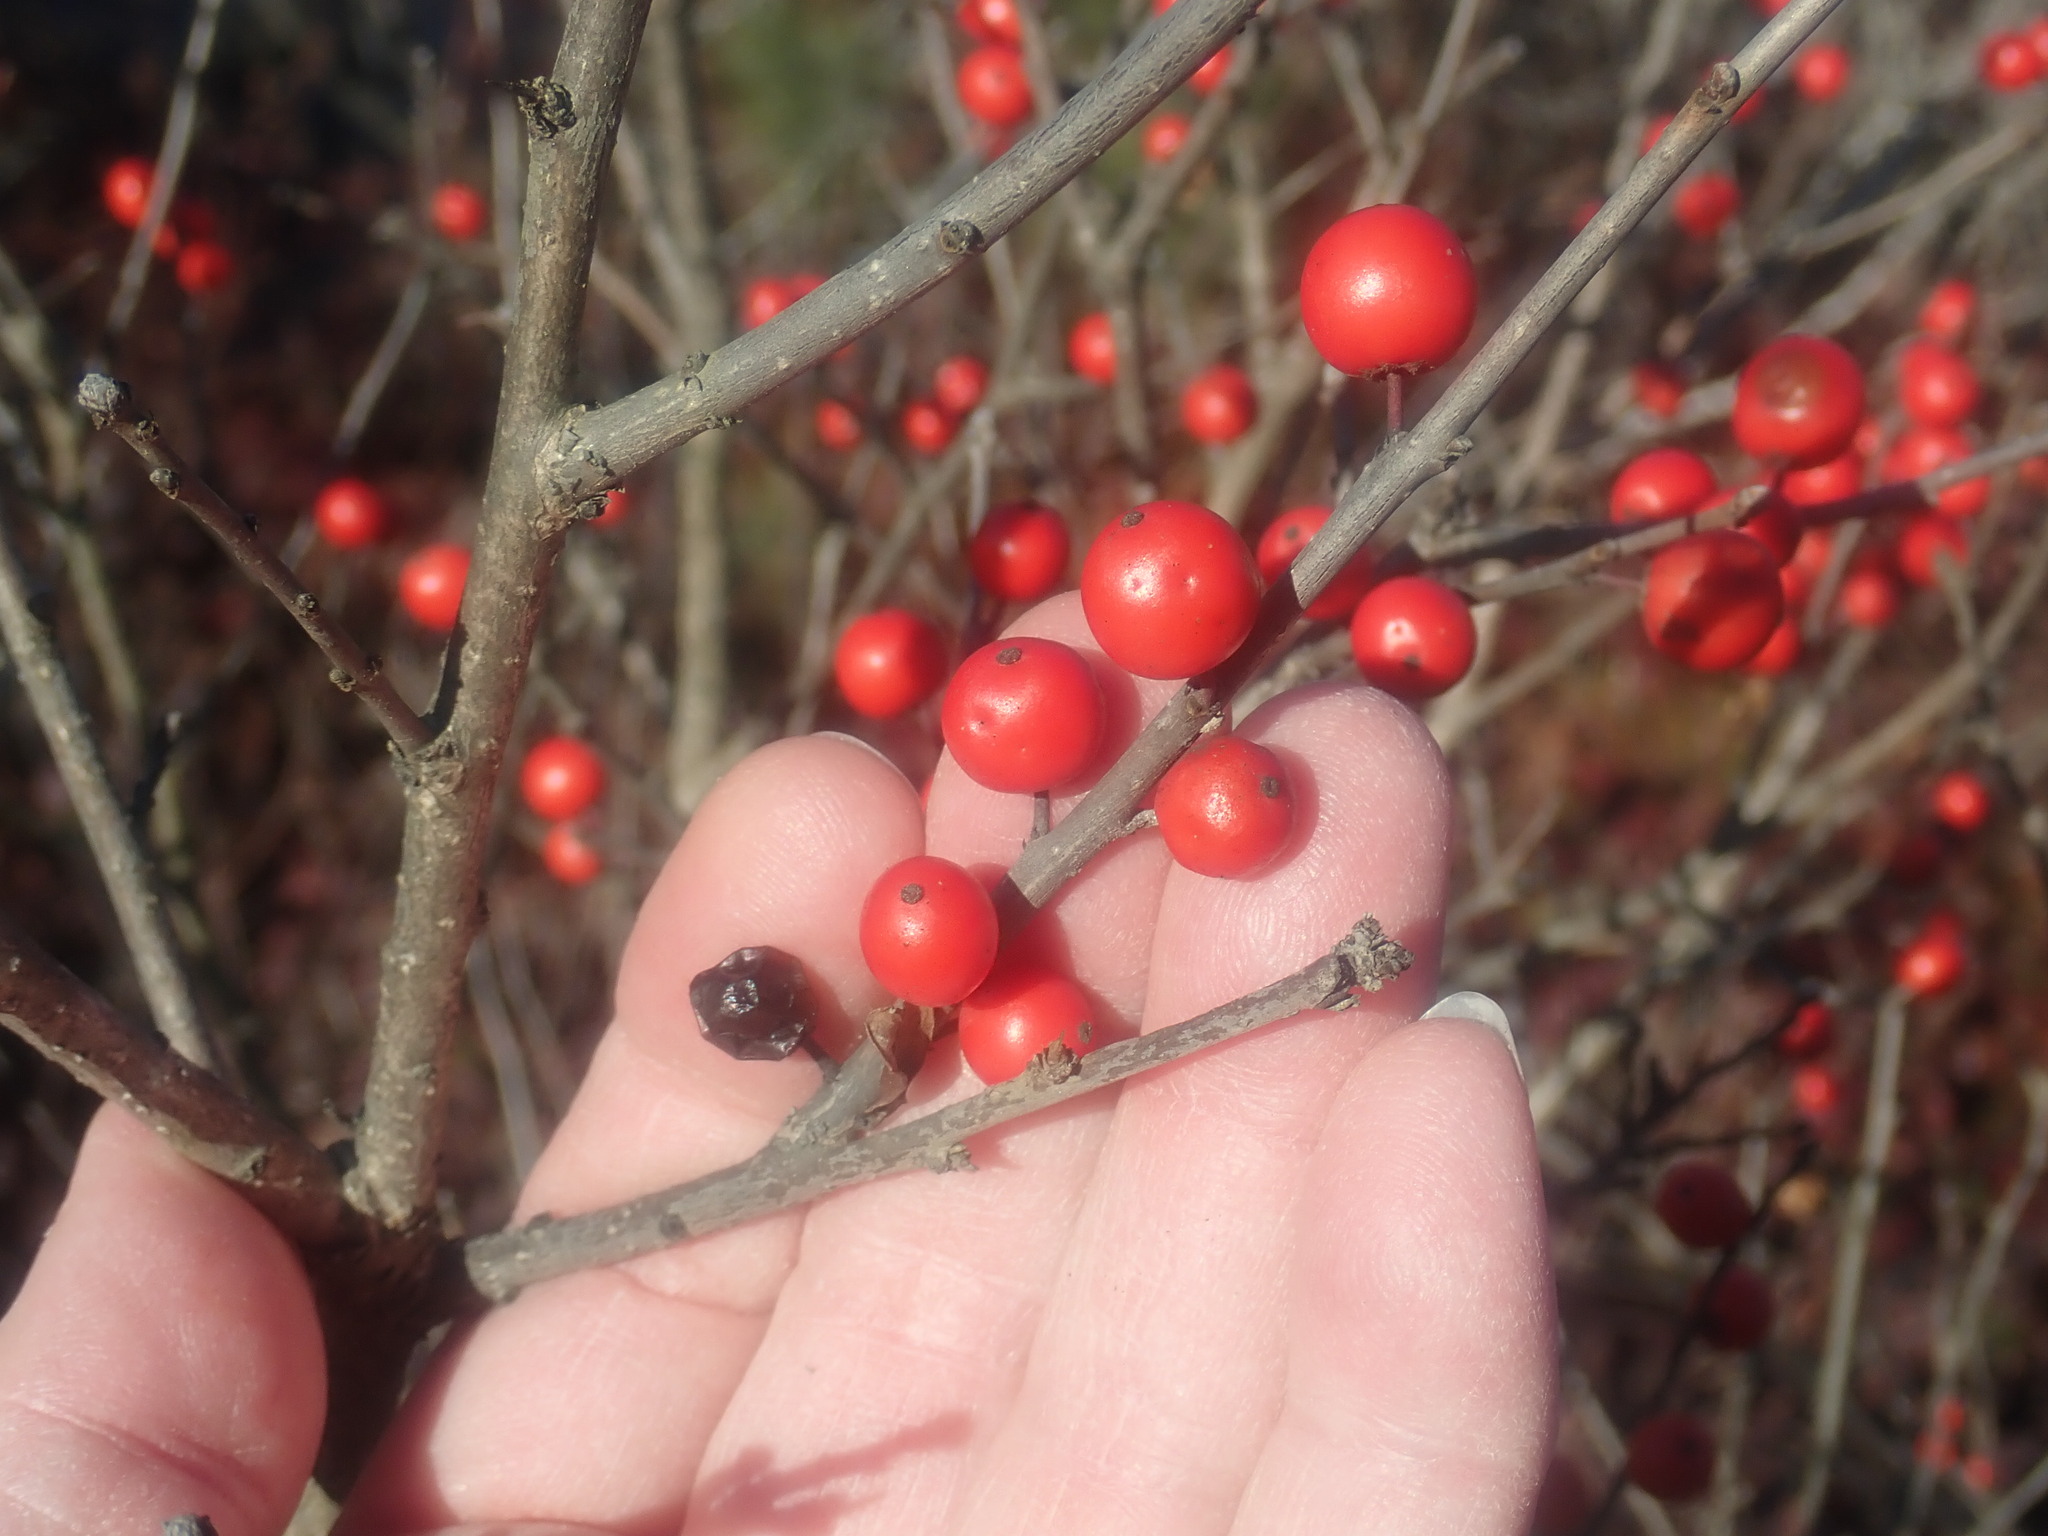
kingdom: Plantae
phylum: Tracheophyta
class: Magnoliopsida
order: Aquifoliales
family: Aquifoliaceae
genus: Ilex
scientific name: Ilex verticillata
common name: Virginia winterberry
